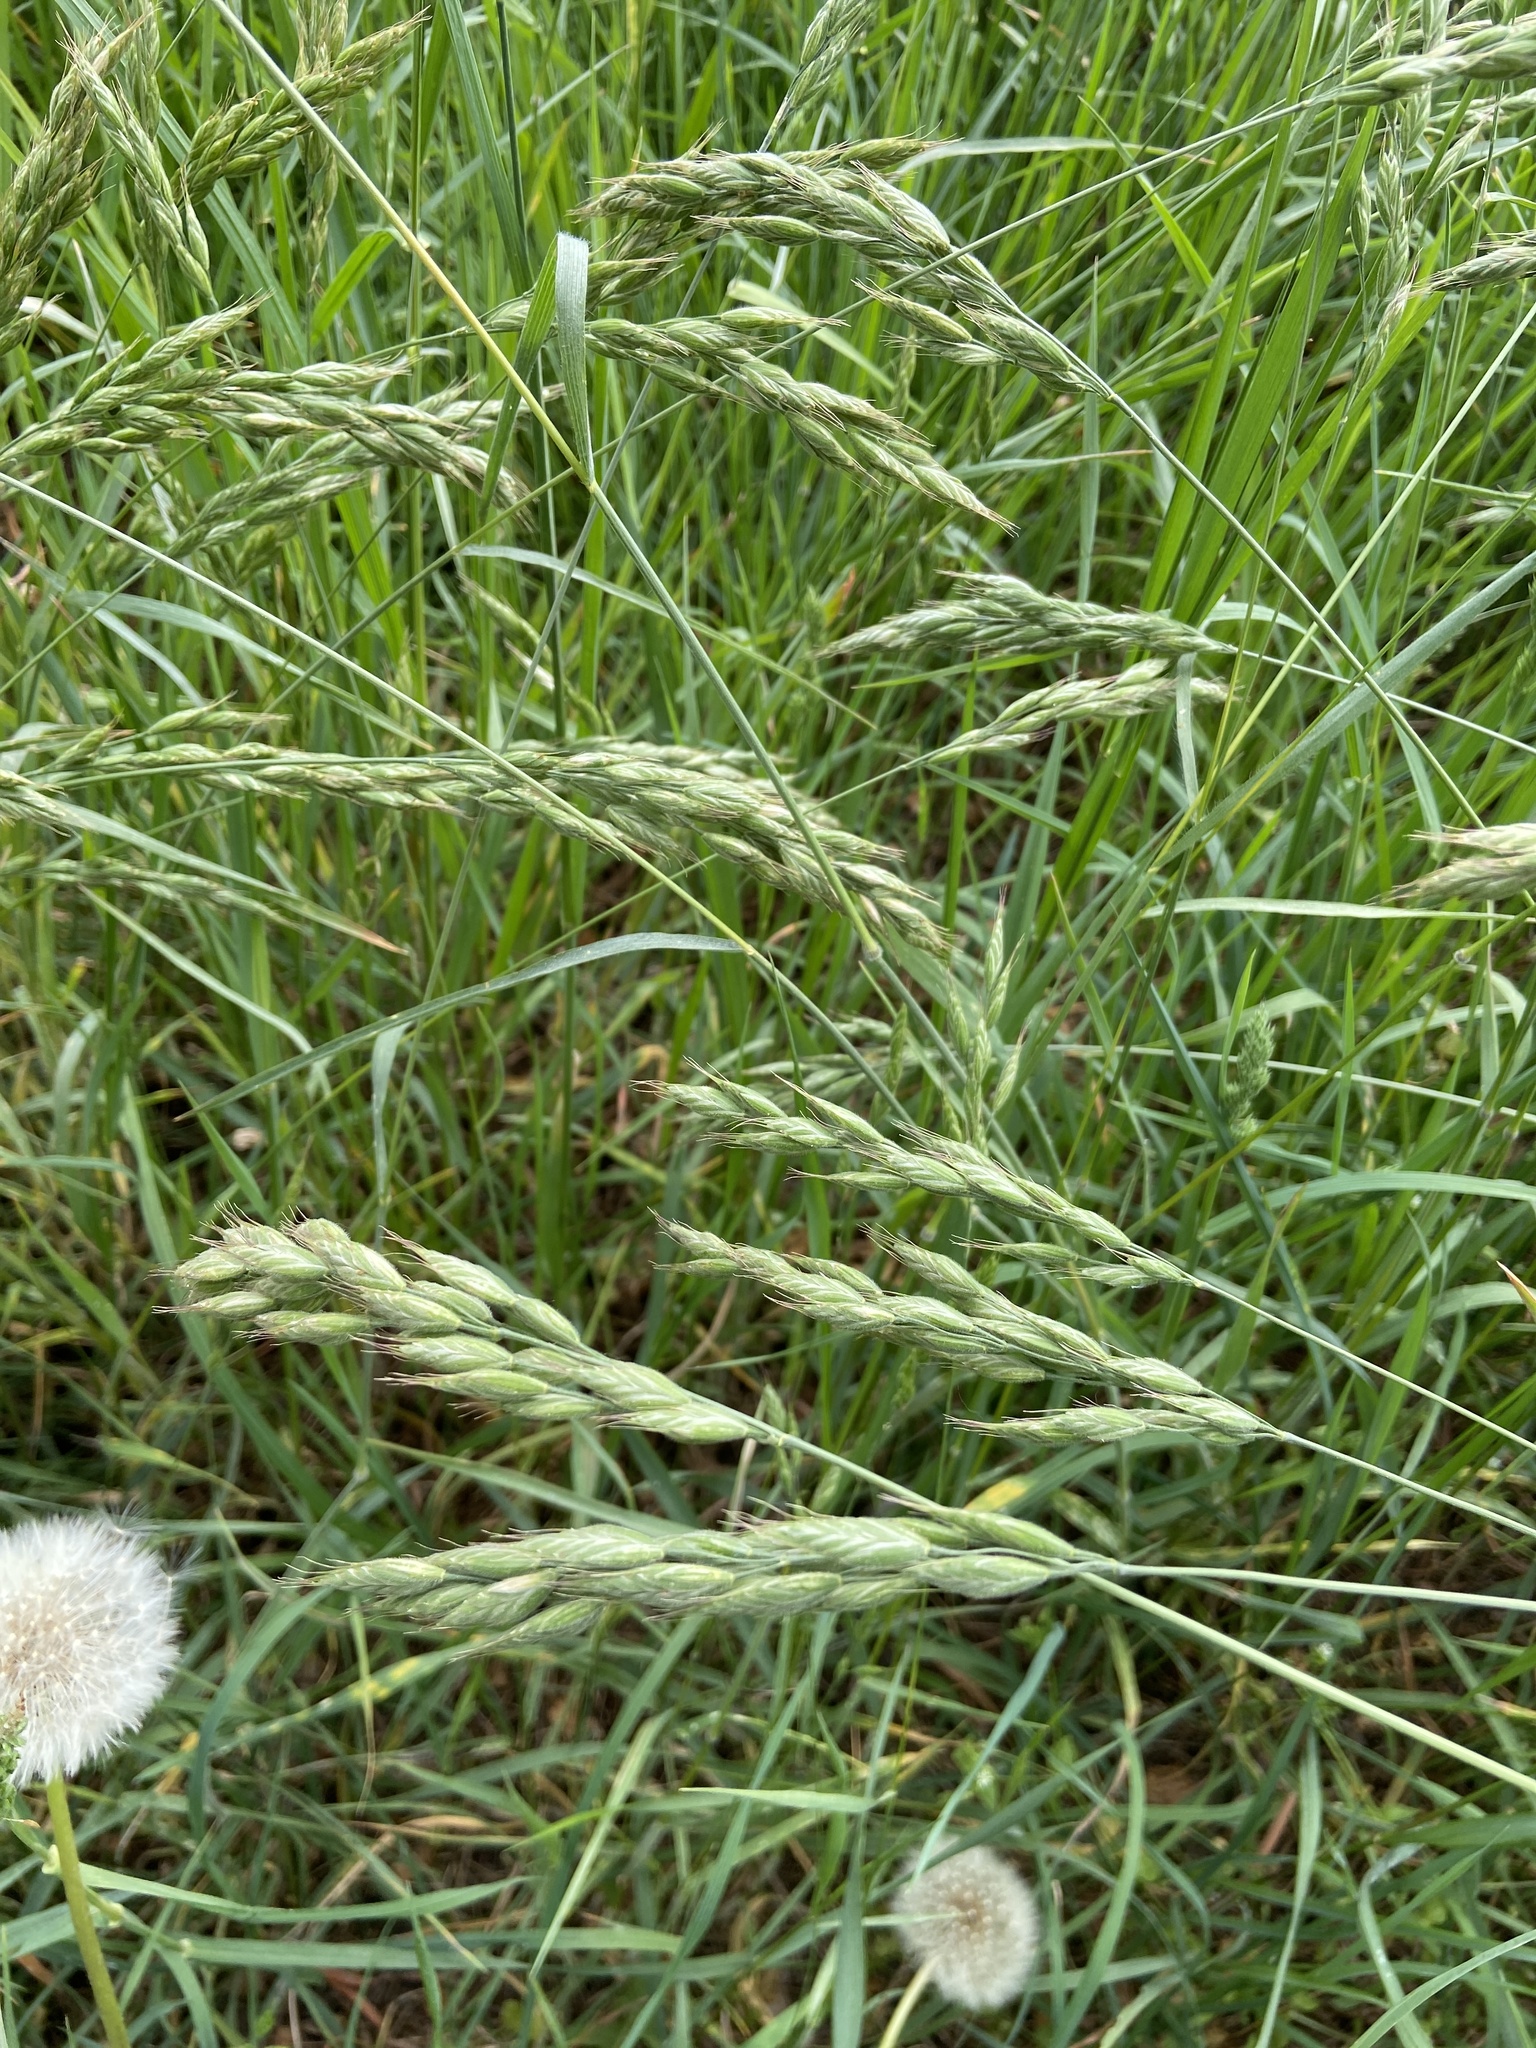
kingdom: Plantae
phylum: Tracheophyta
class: Liliopsida
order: Poales
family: Poaceae
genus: Bromus
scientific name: Bromus hordeaceus
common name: Soft brome
